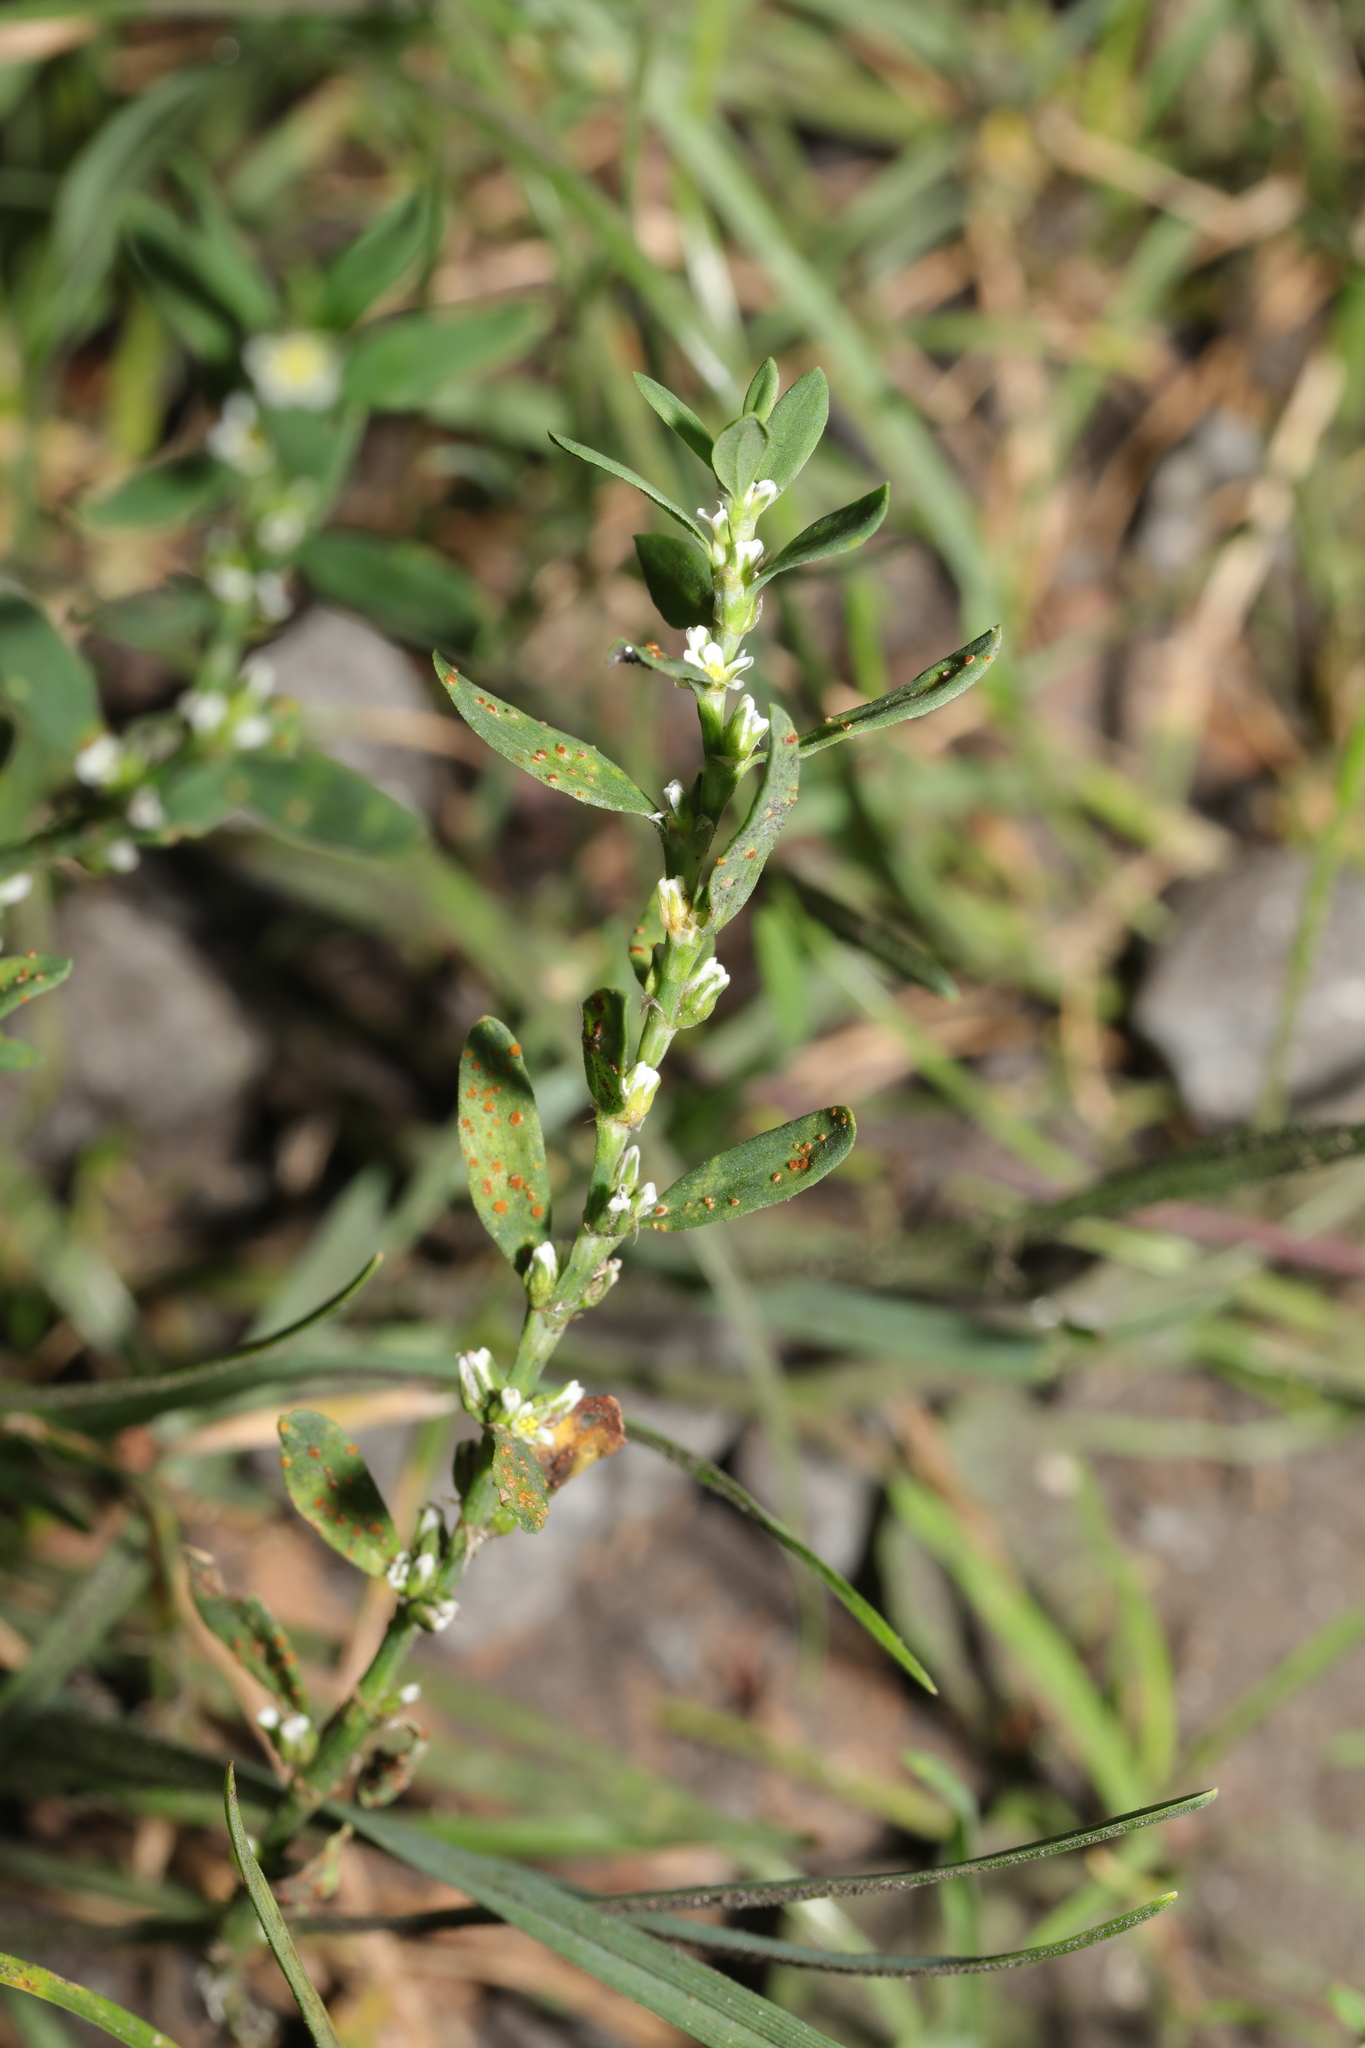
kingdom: Plantae
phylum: Tracheophyta
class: Magnoliopsida
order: Caryophyllales
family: Polygonaceae
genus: Polygonum
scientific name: Polygonum aviculare
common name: Prostrate knotweed
